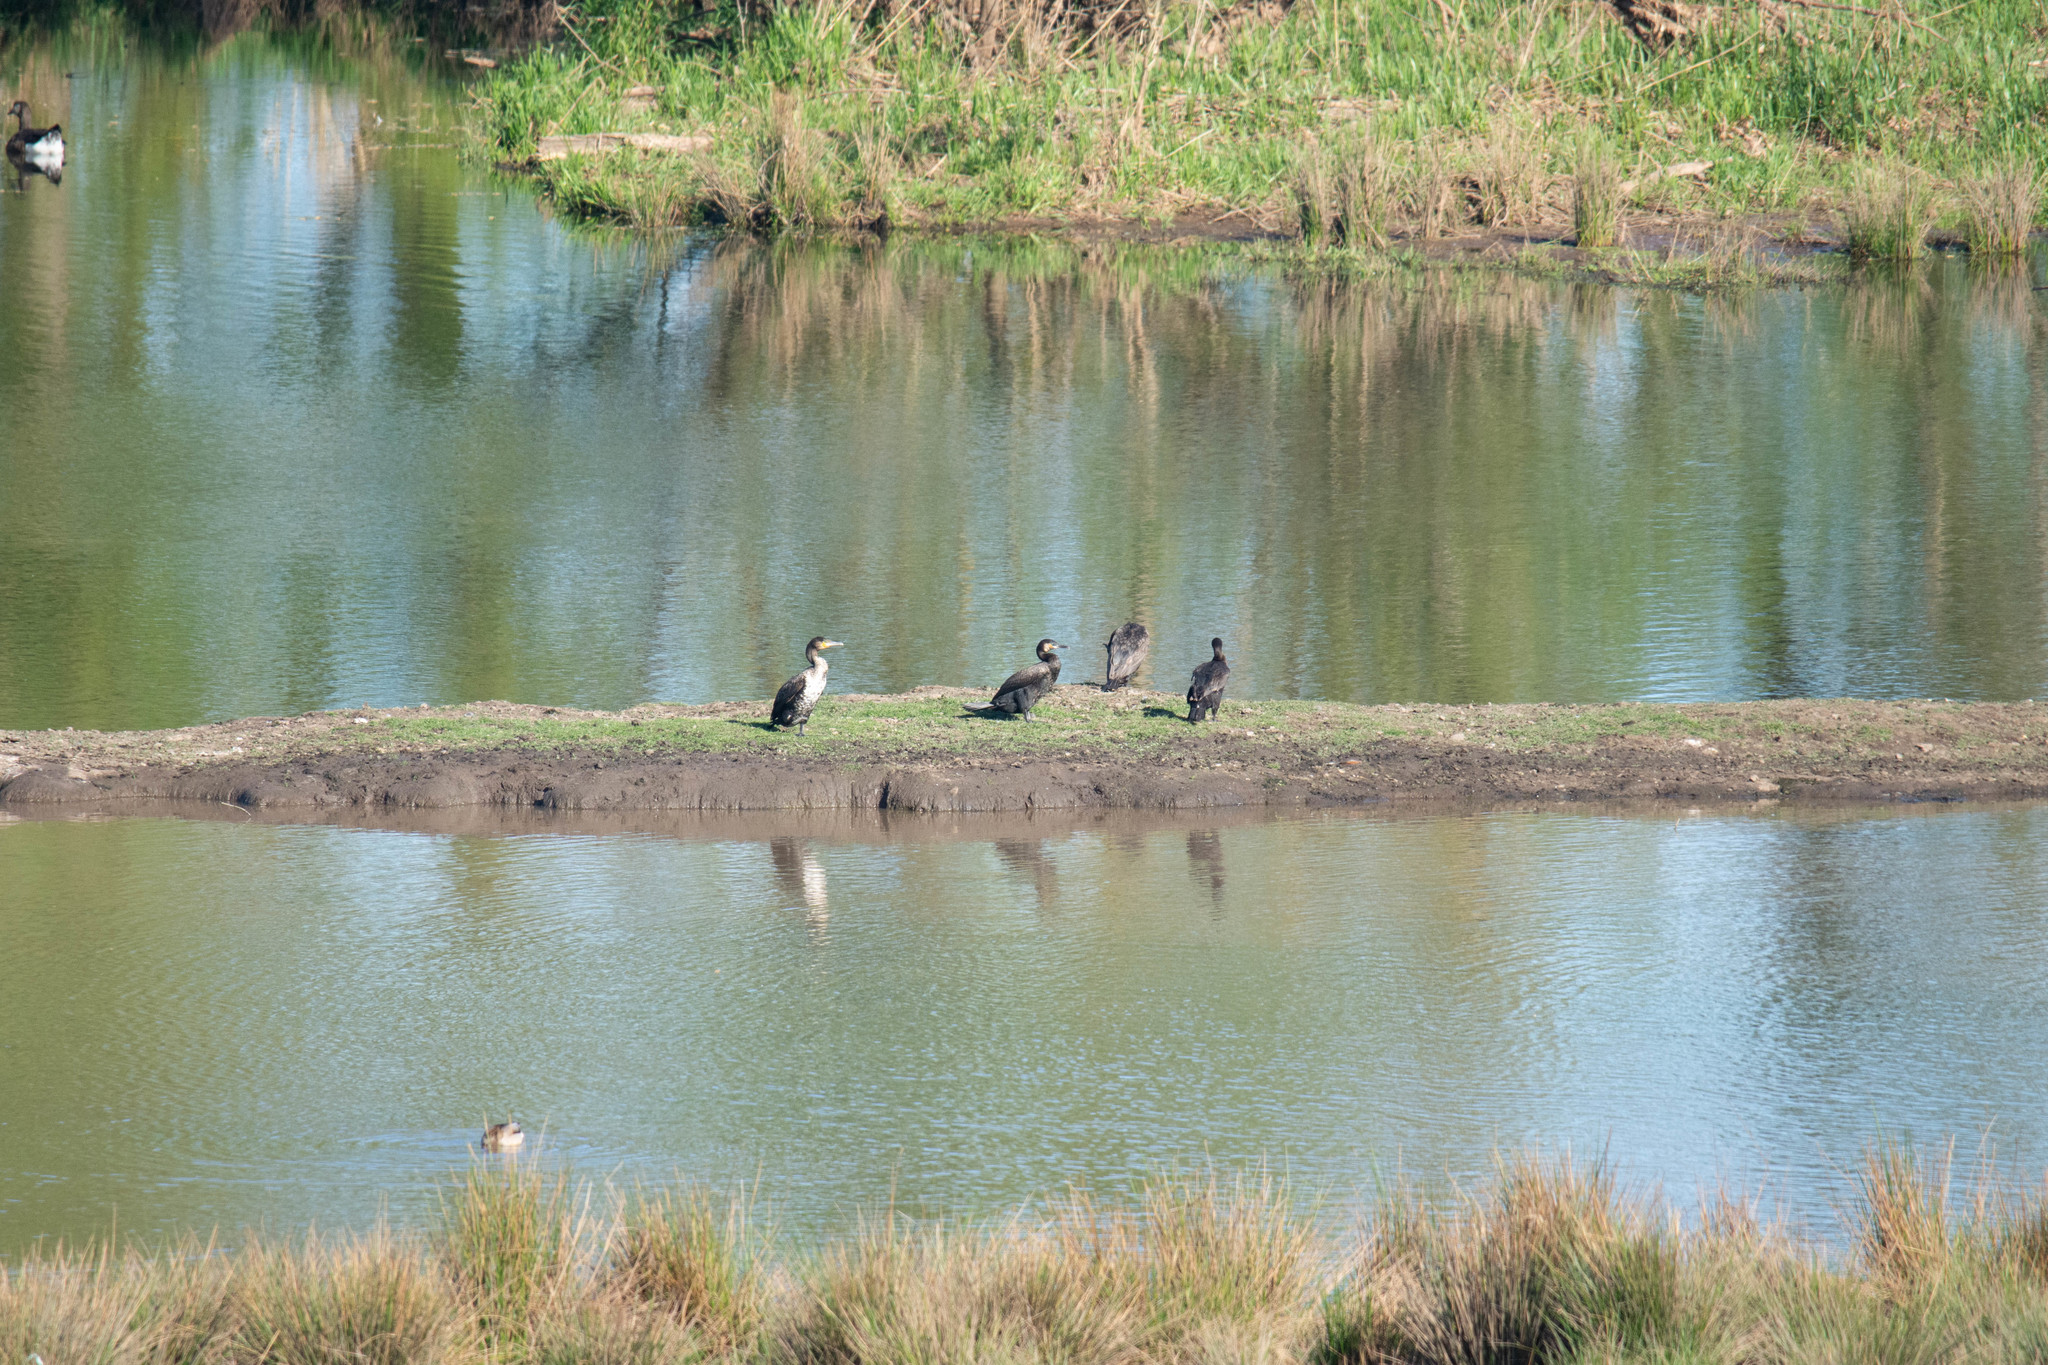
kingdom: Animalia
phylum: Chordata
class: Aves
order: Suliformes
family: Phalacrocoracidae
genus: Phalacrocorax
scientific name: Phalacrocorax carbo
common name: Great cormorant
